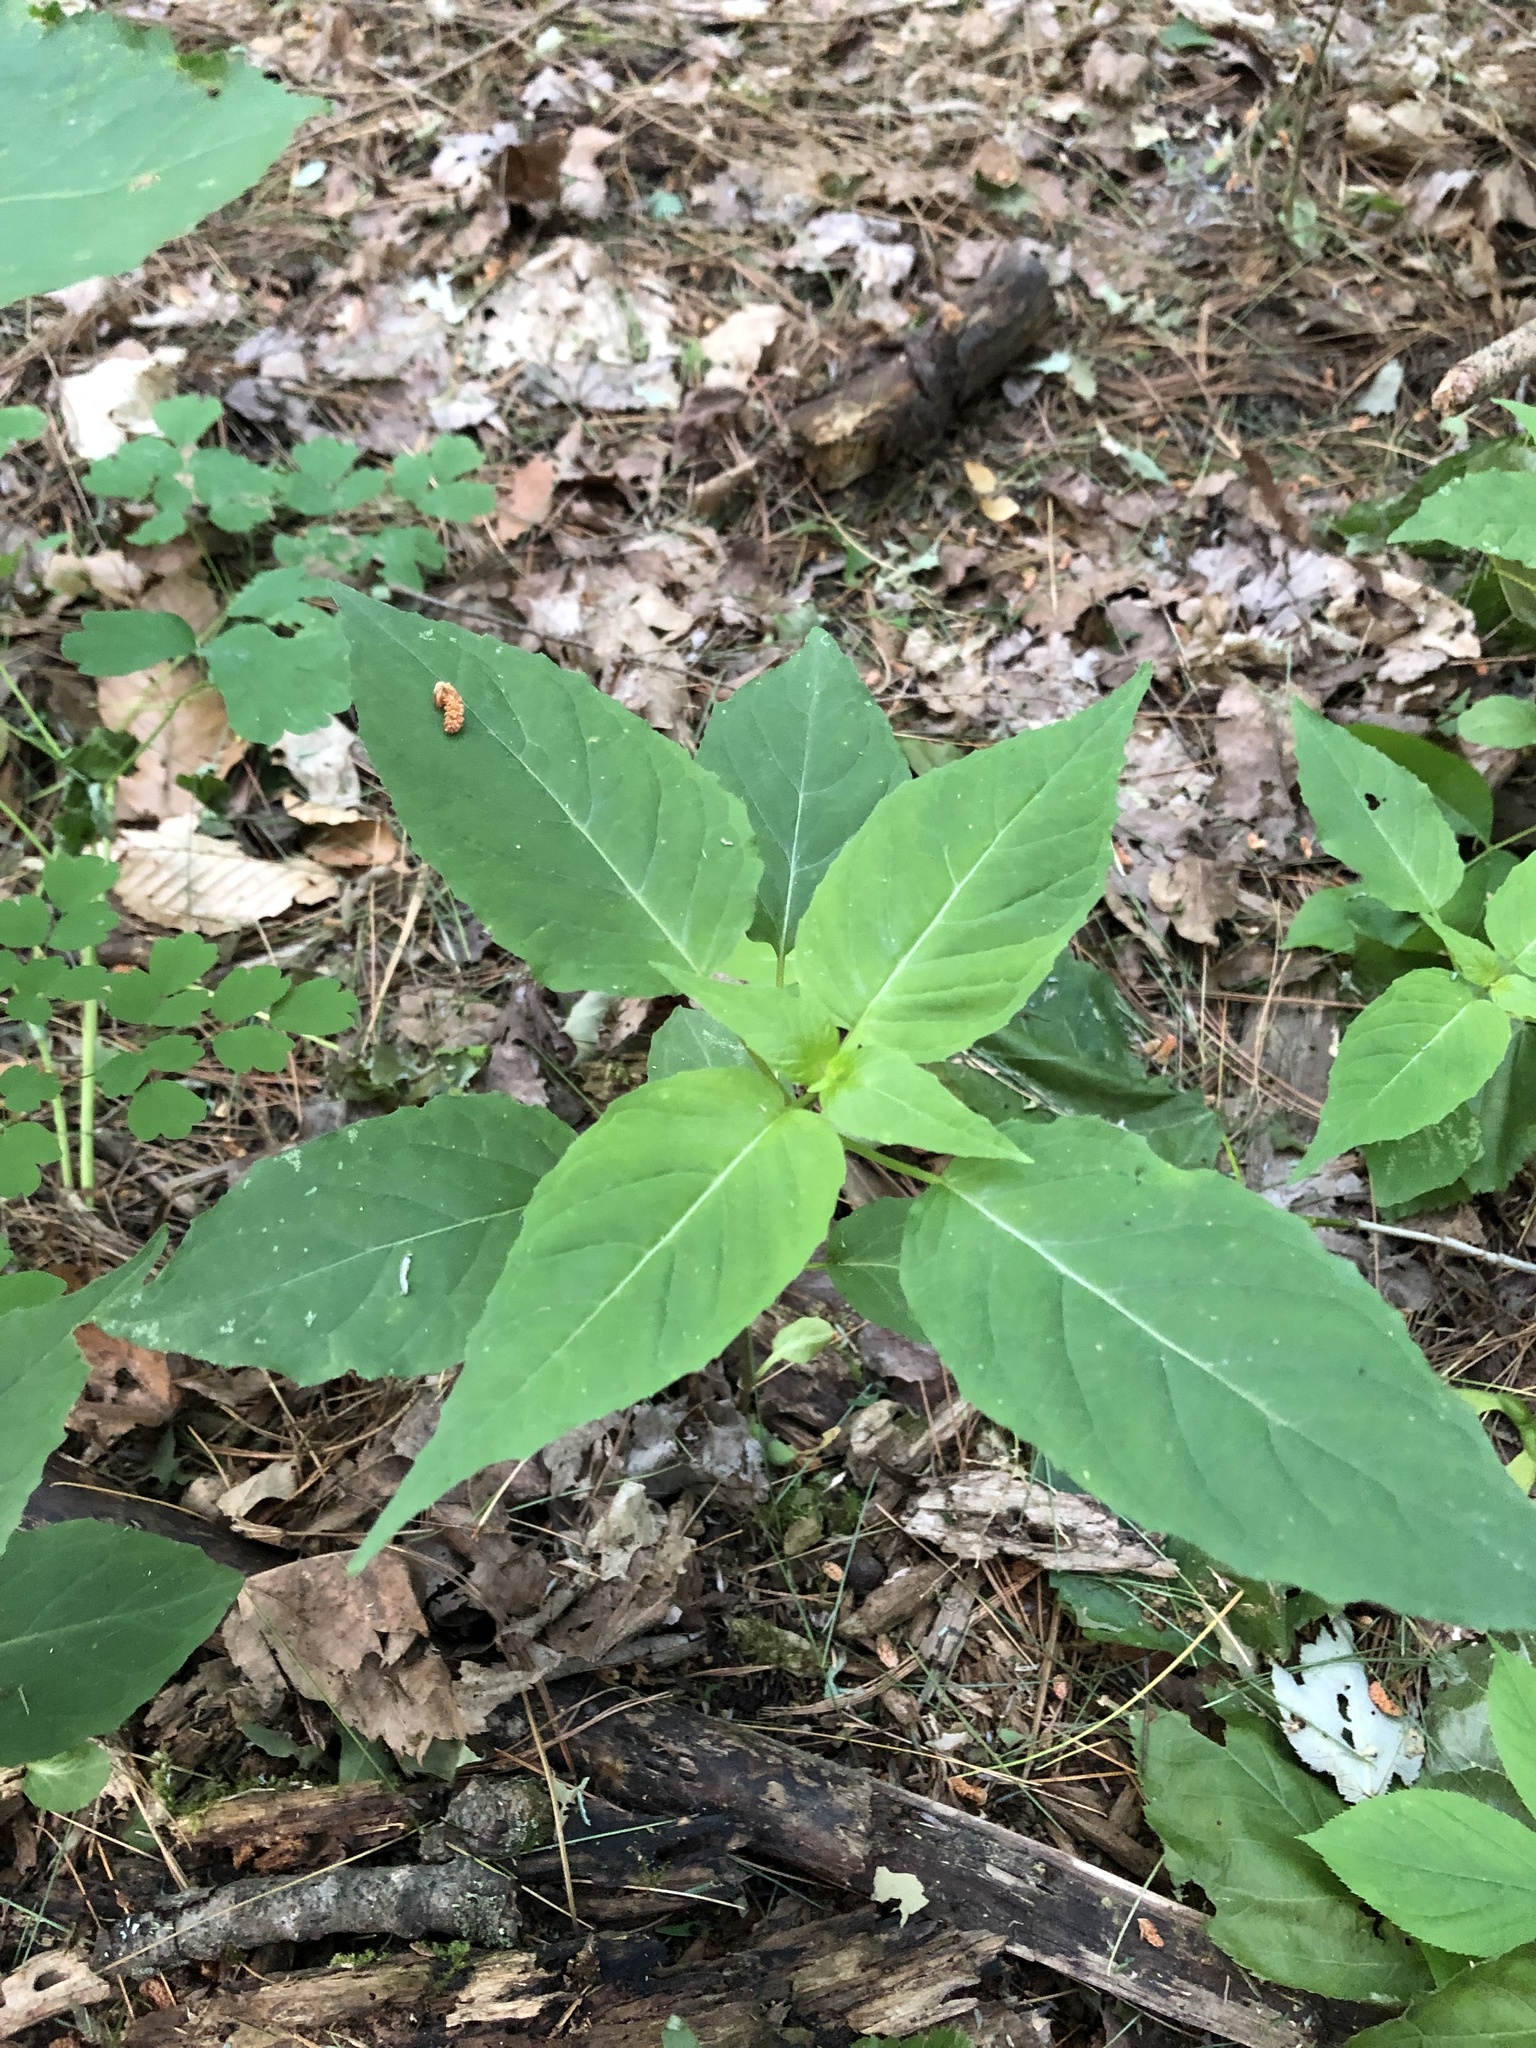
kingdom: Plantae
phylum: Tracheophyta
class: Magnoliopsida
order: Myrtales
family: Onagraceae
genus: Circaea
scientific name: Circaea canadensis
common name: Broad-leaved enchanter's nightshade
